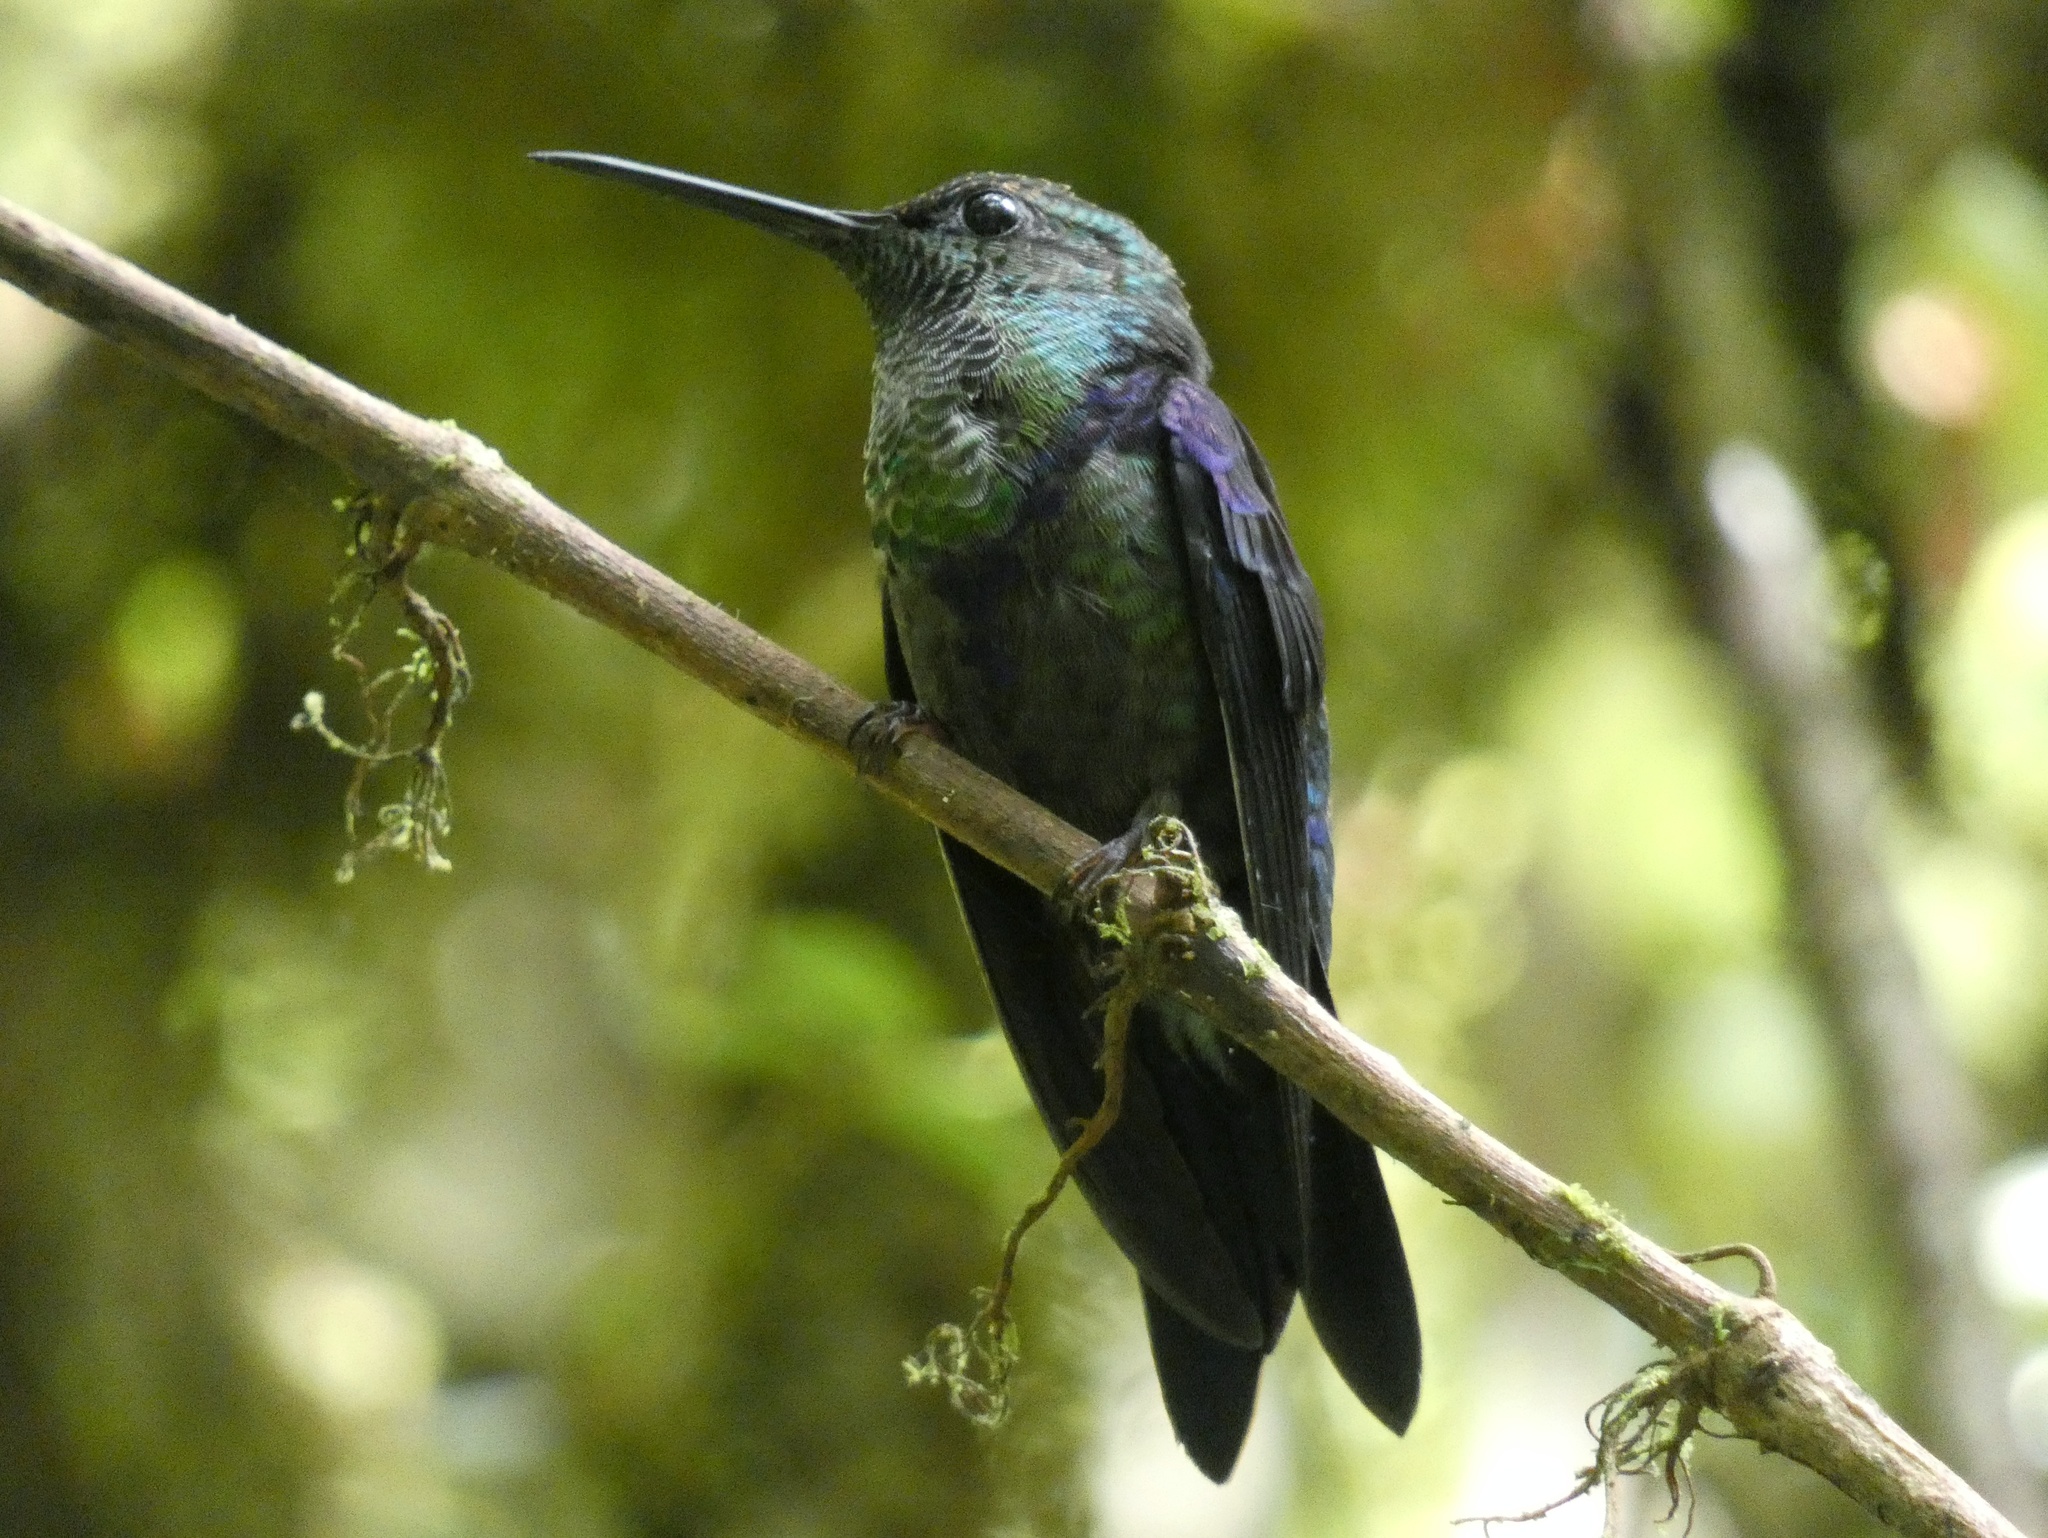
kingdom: Animalia
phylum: Chordata
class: Aves
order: Apodiformes
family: Trochilidae
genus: Thalurania
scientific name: Thalurania colombica
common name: Crowned woodnymph
